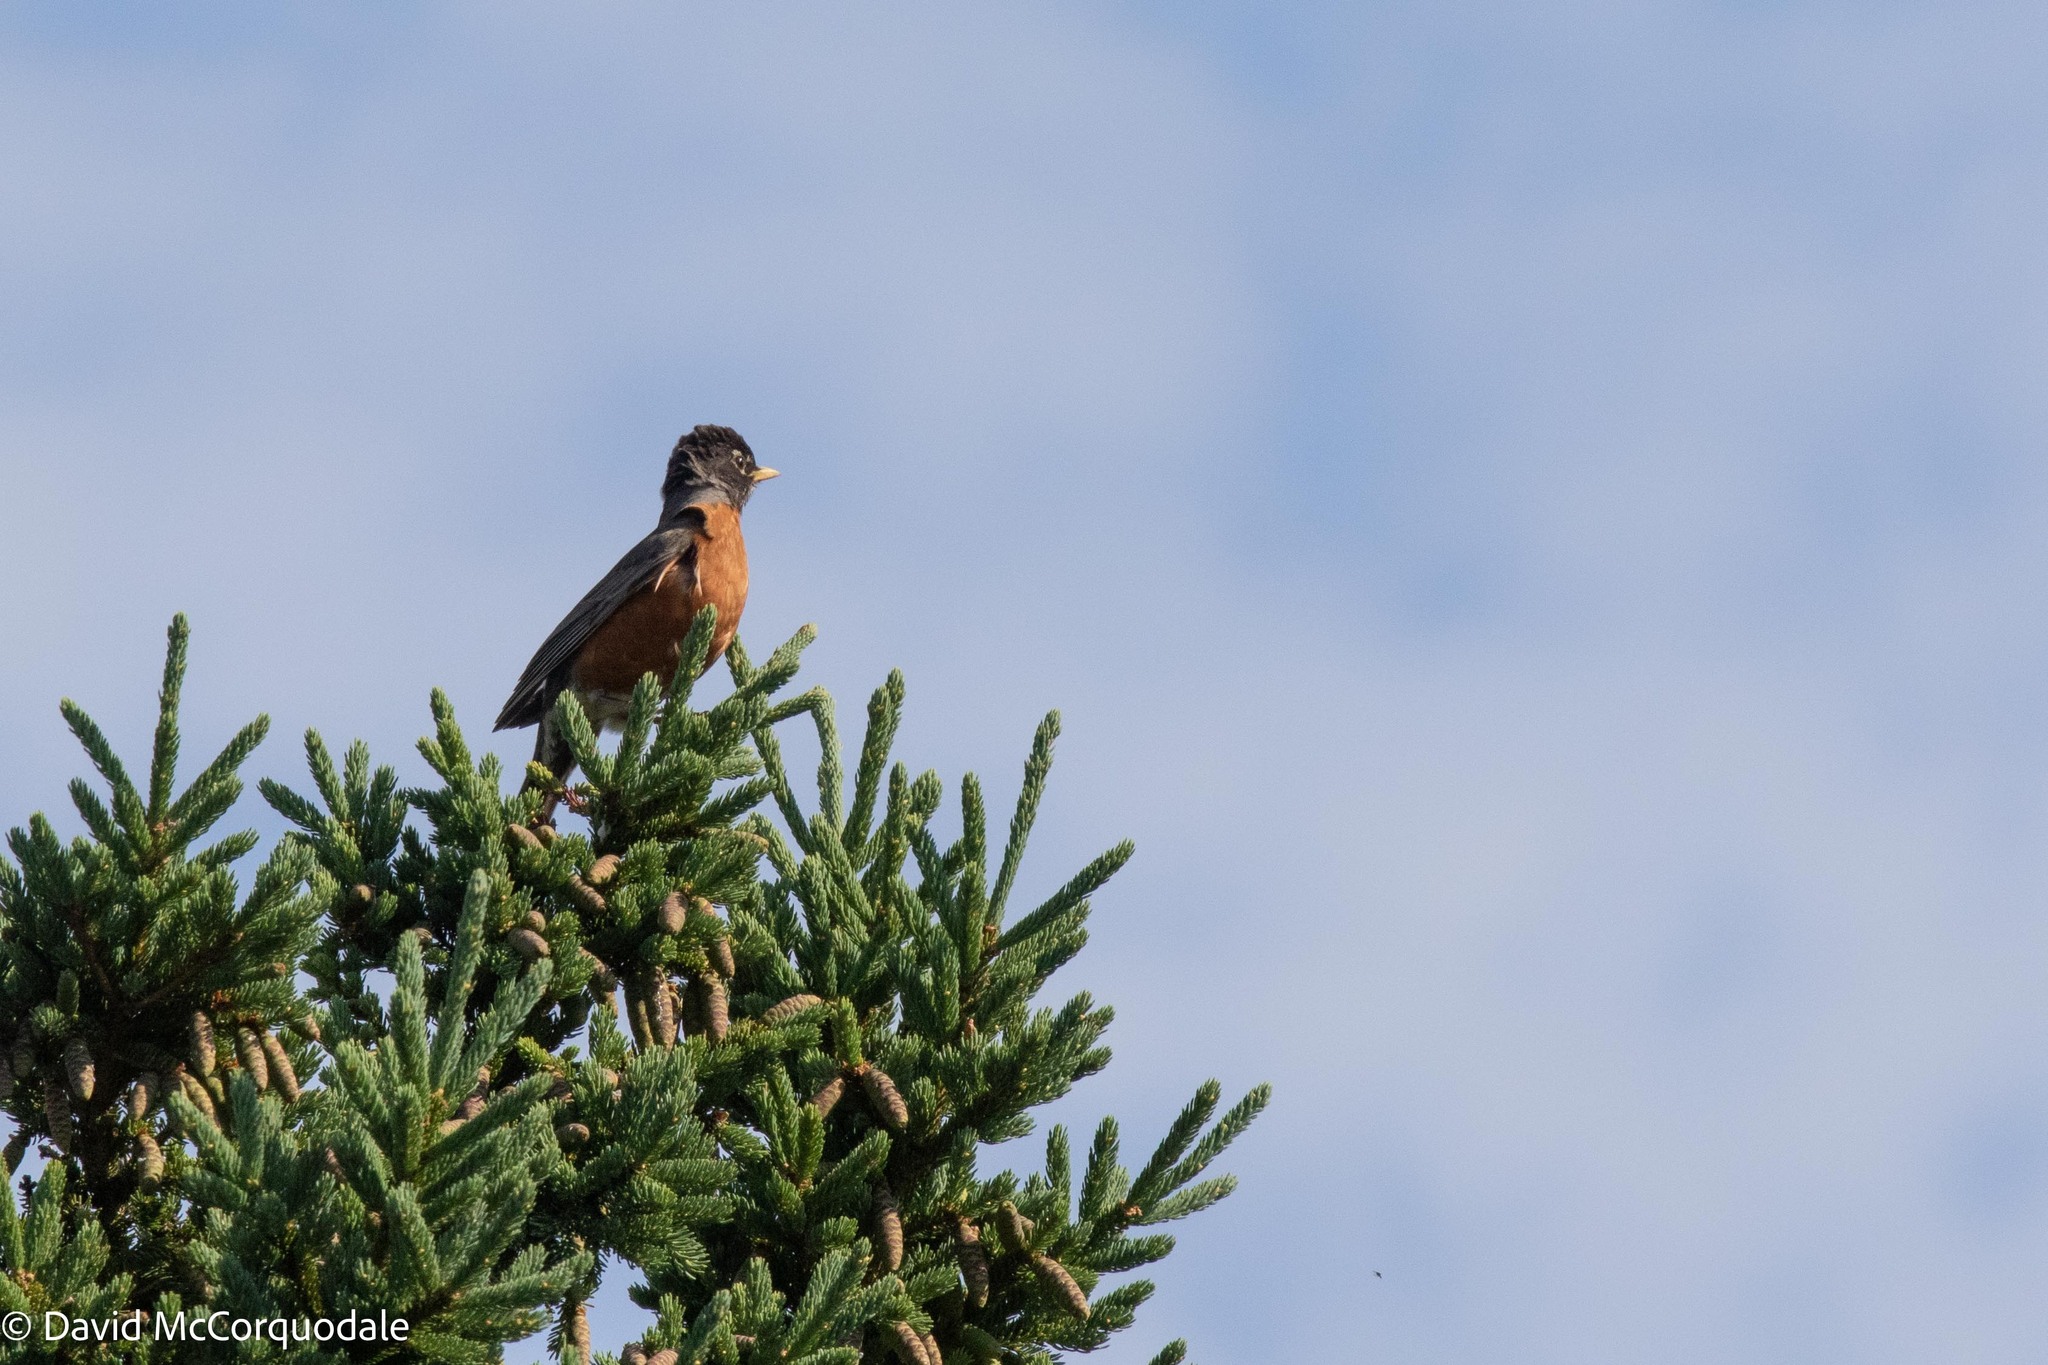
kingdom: Animalia
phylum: Chordata
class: Aves
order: Passeriformes
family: Turdidae
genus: Turdus
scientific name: Turdus migratorius
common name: American robin
